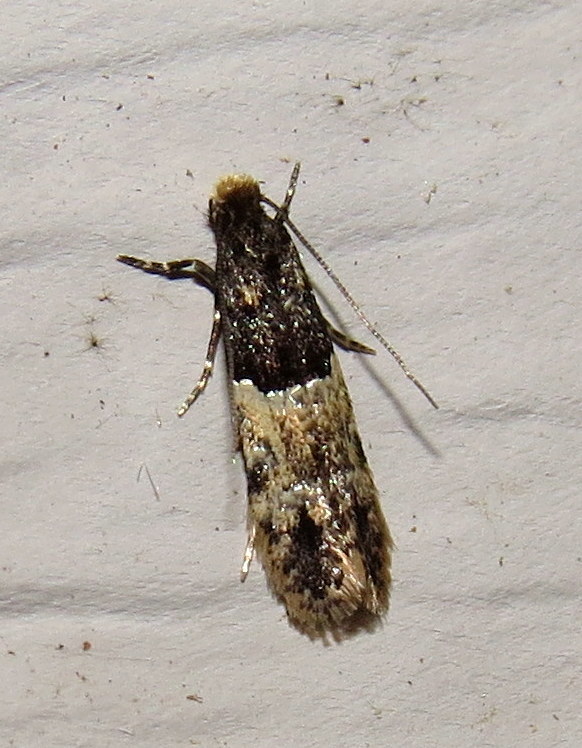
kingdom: Animalia
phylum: Arthropoda
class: Insecta
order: Lepidoptera
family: Meessiidae
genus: Oenoe
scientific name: Oenoe hybromella
